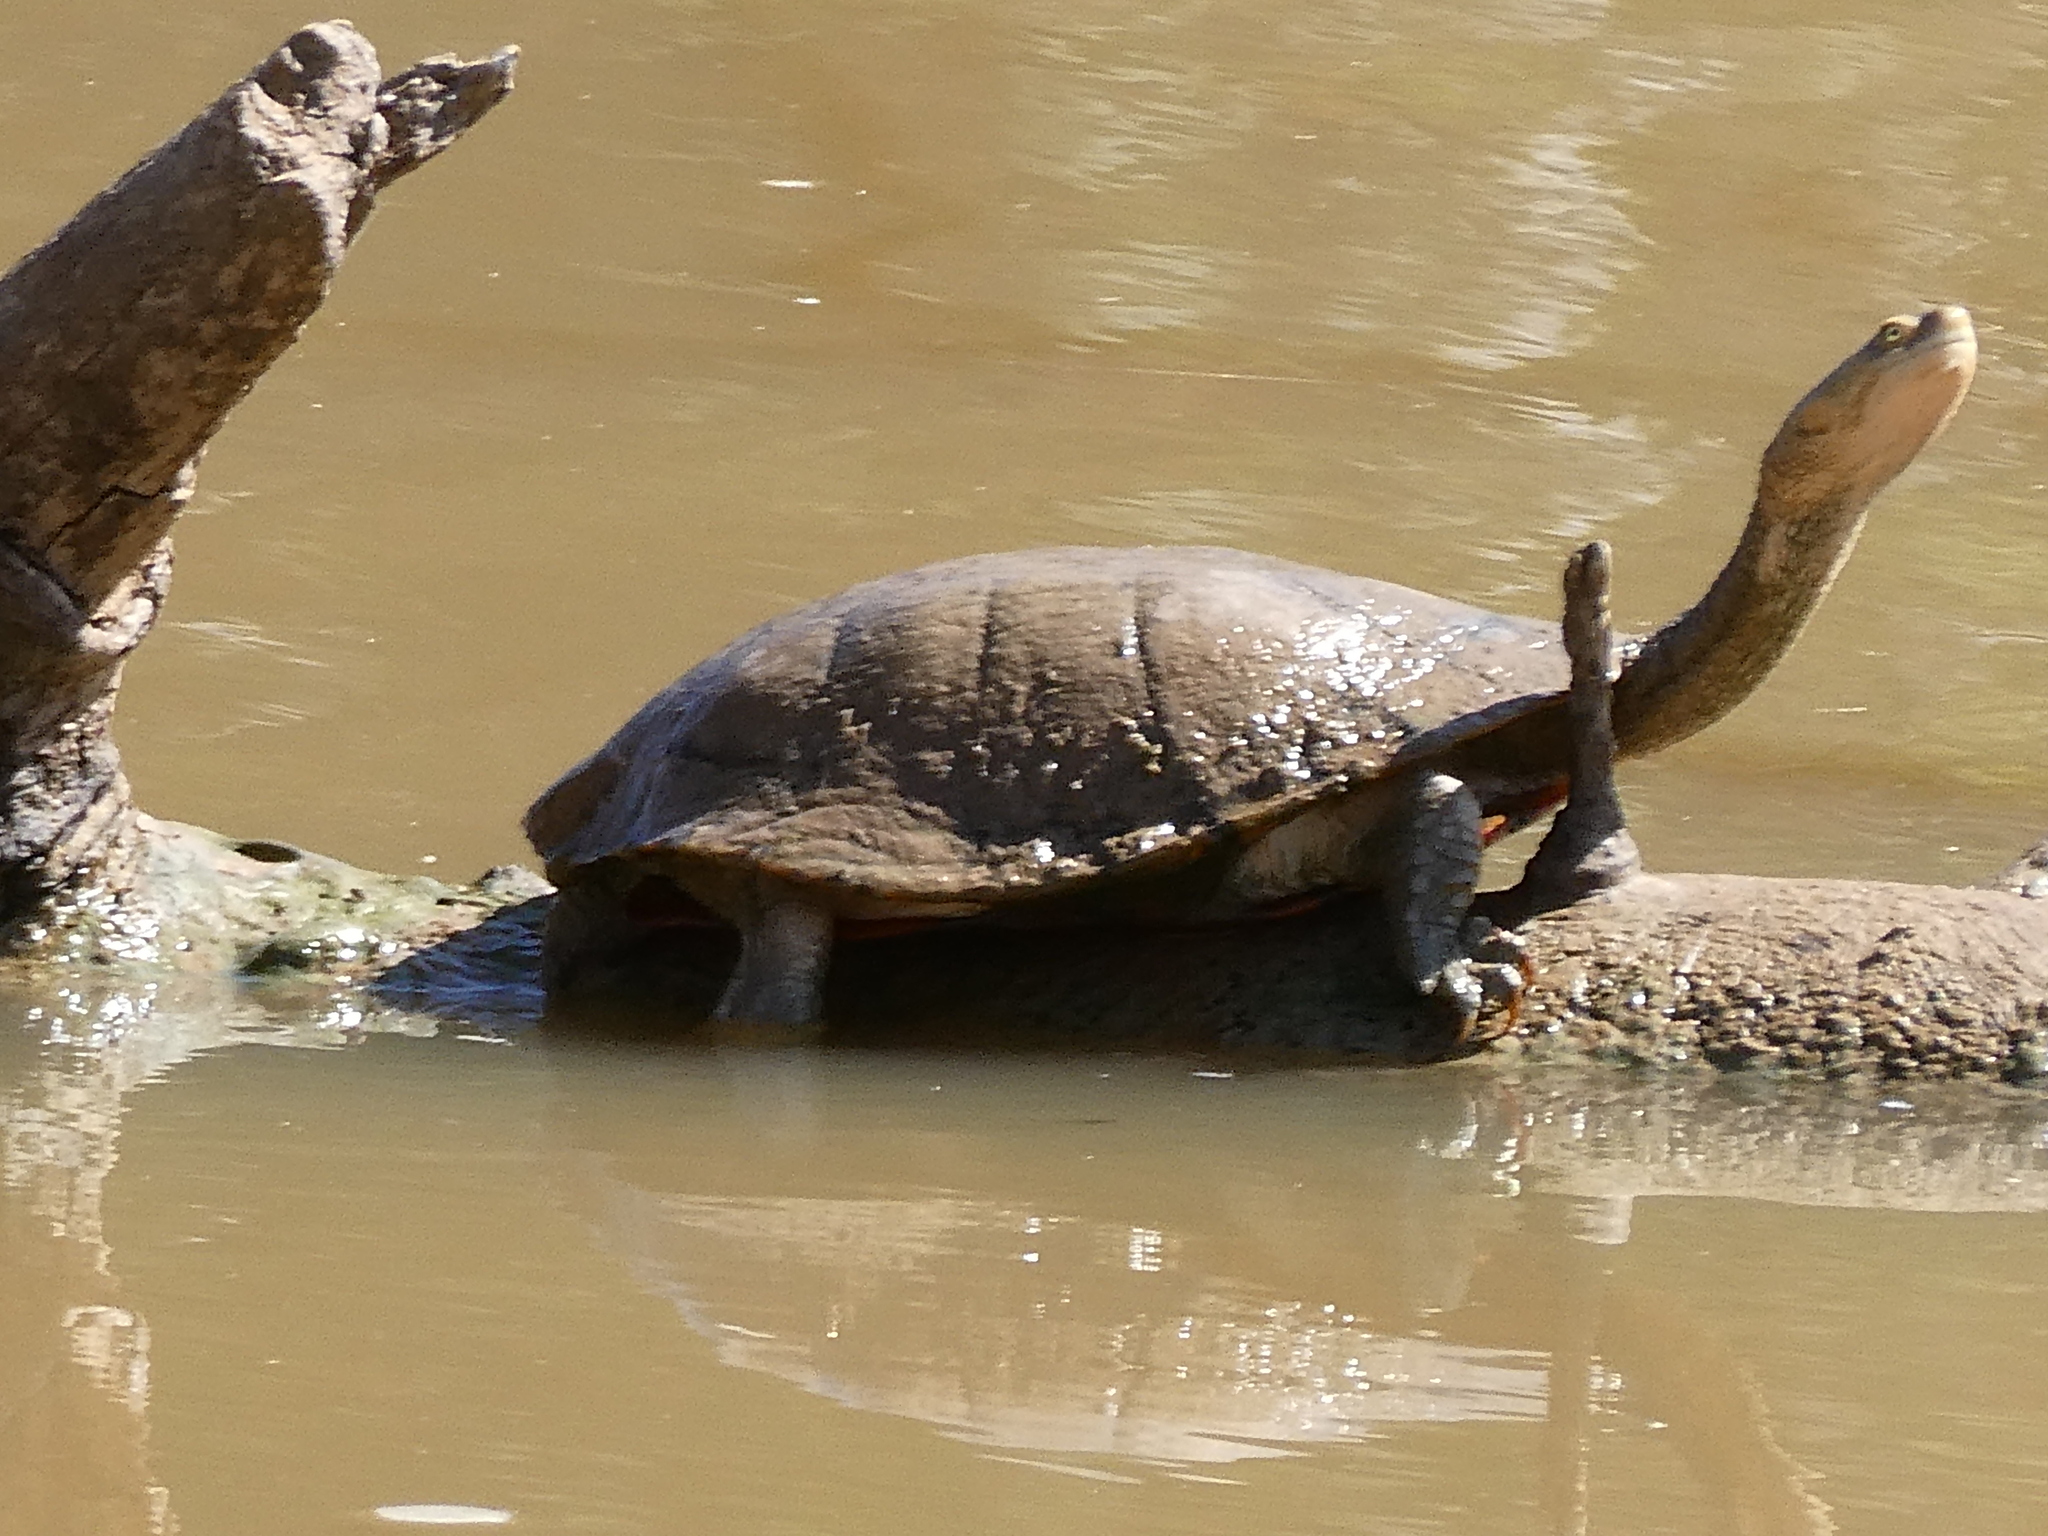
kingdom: Animalia
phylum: Chordata
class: Testudines
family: Chelidae
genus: Chelodina
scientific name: Chelodina longicollis
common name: Eastern snake-necked turtle
